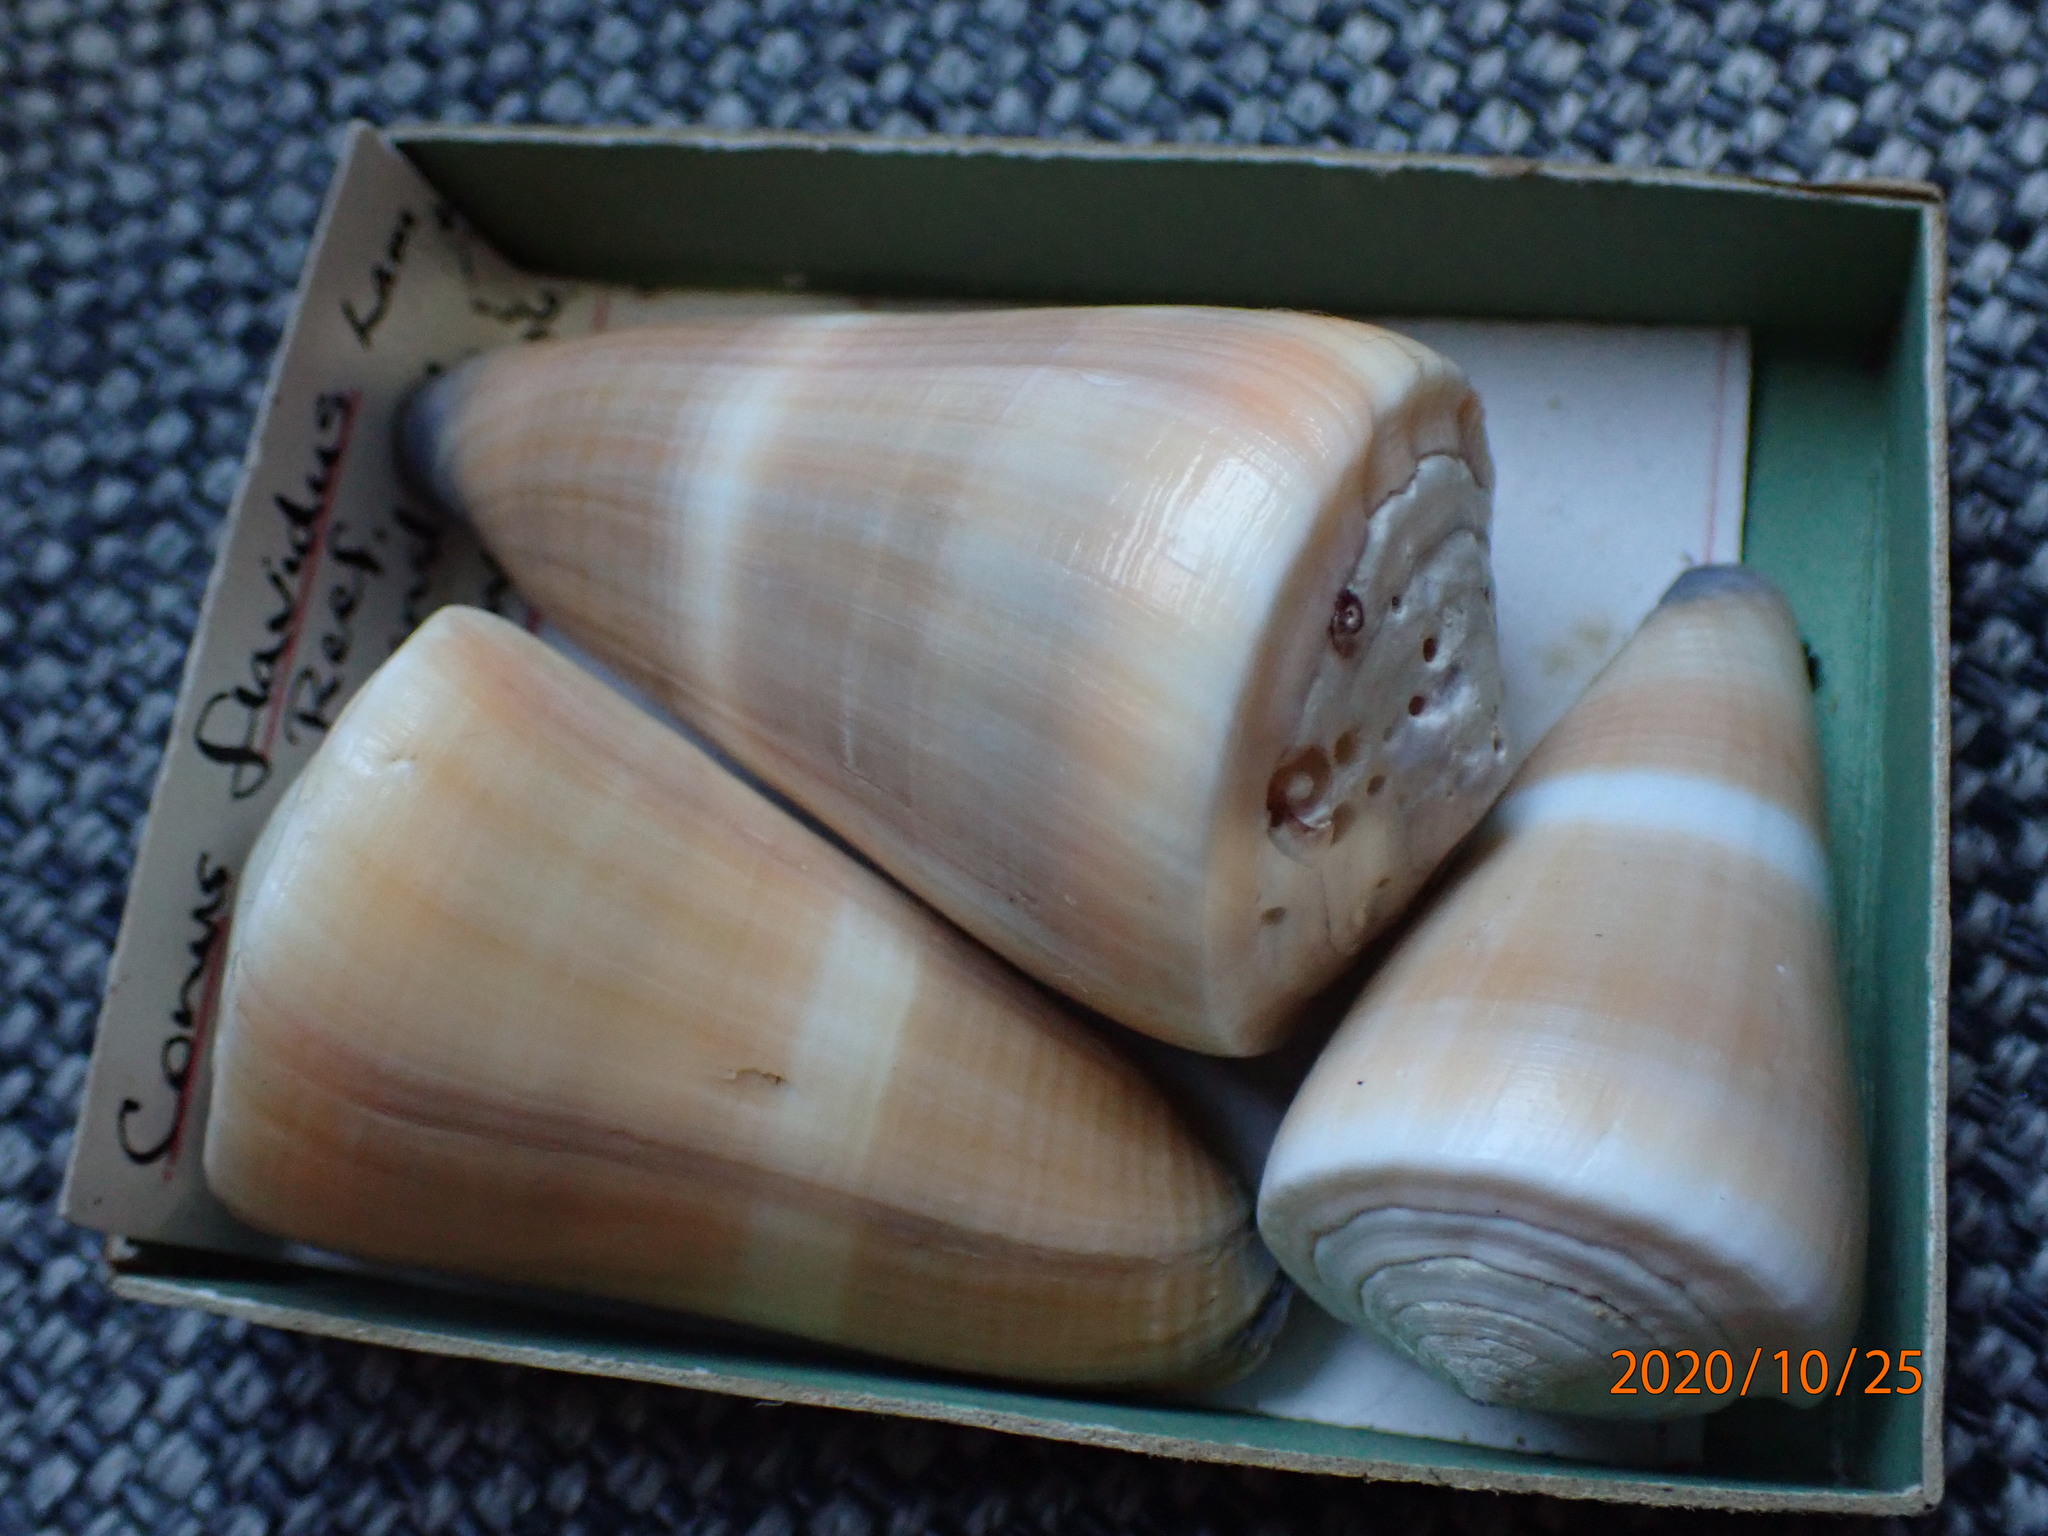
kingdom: Animalia
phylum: Mollusca
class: Gastropoda
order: Neogastropoda
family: Conidae
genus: Conus
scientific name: Conus flavidus
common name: Golden-yellow cone
